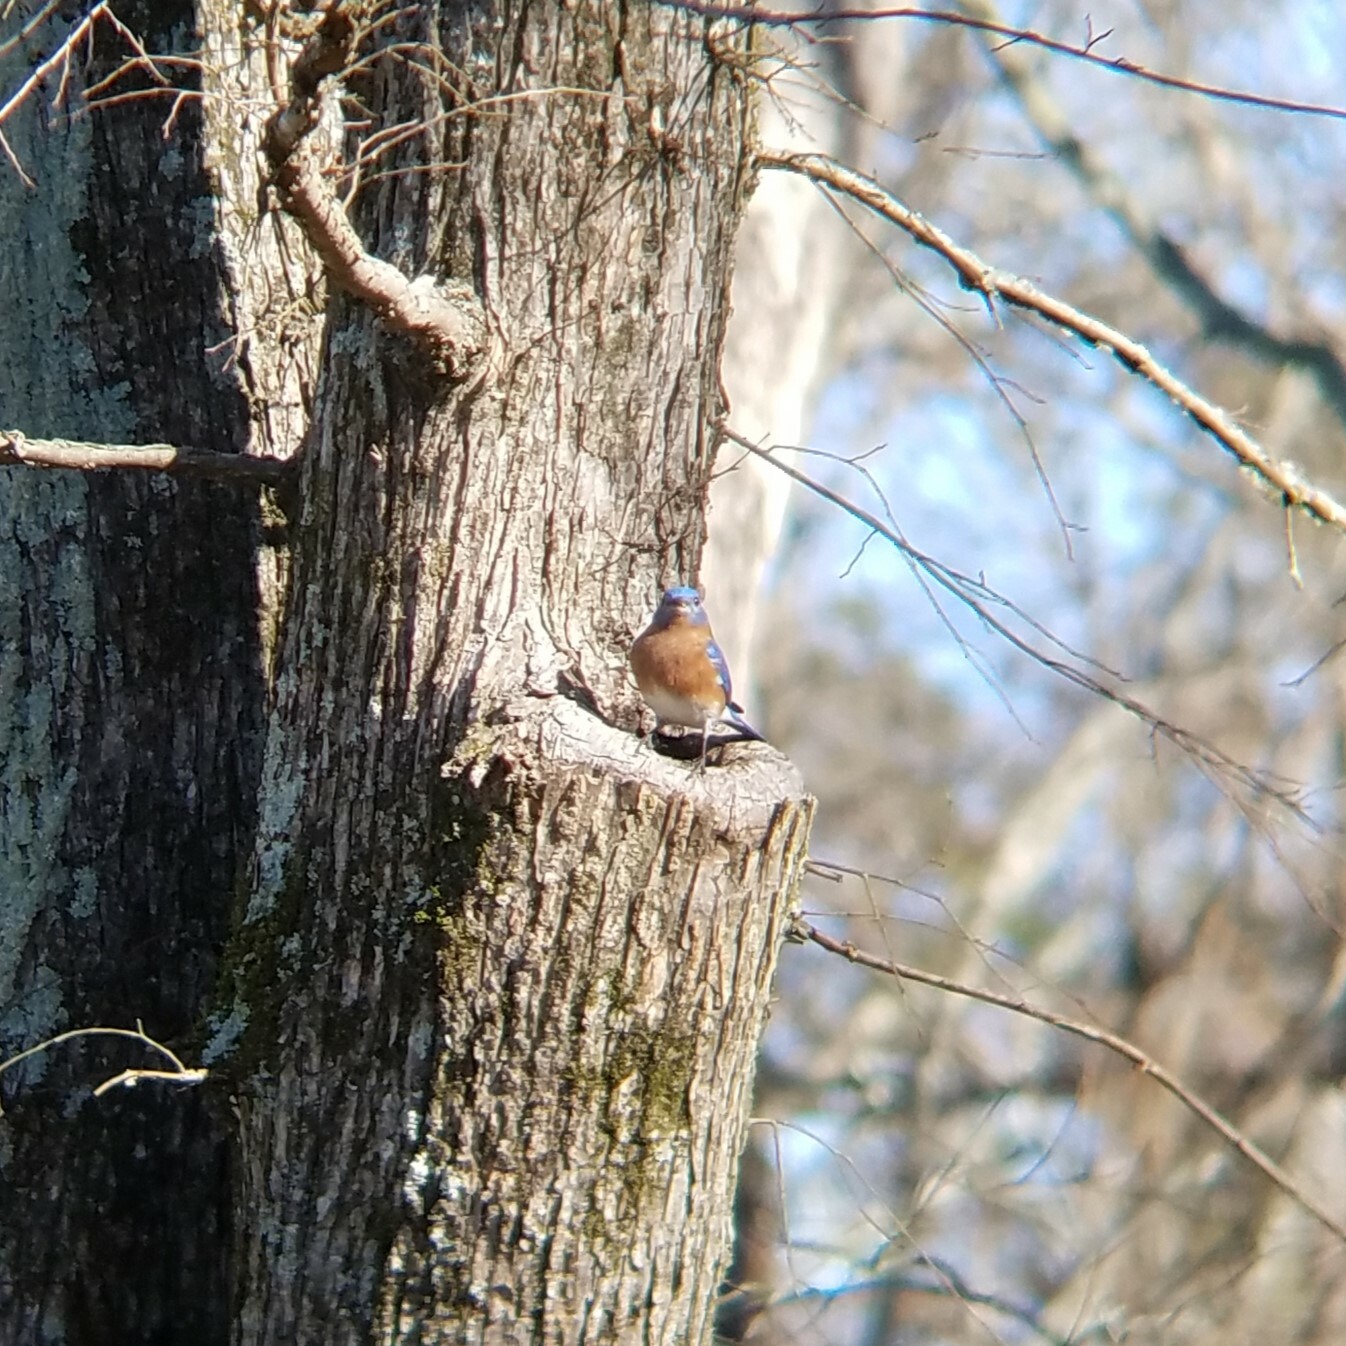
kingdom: Animalia
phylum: Chordata
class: Aves
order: Passeriformes
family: Turdidae
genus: Sialia
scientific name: Sialia sialis
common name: Eastern bluebird
